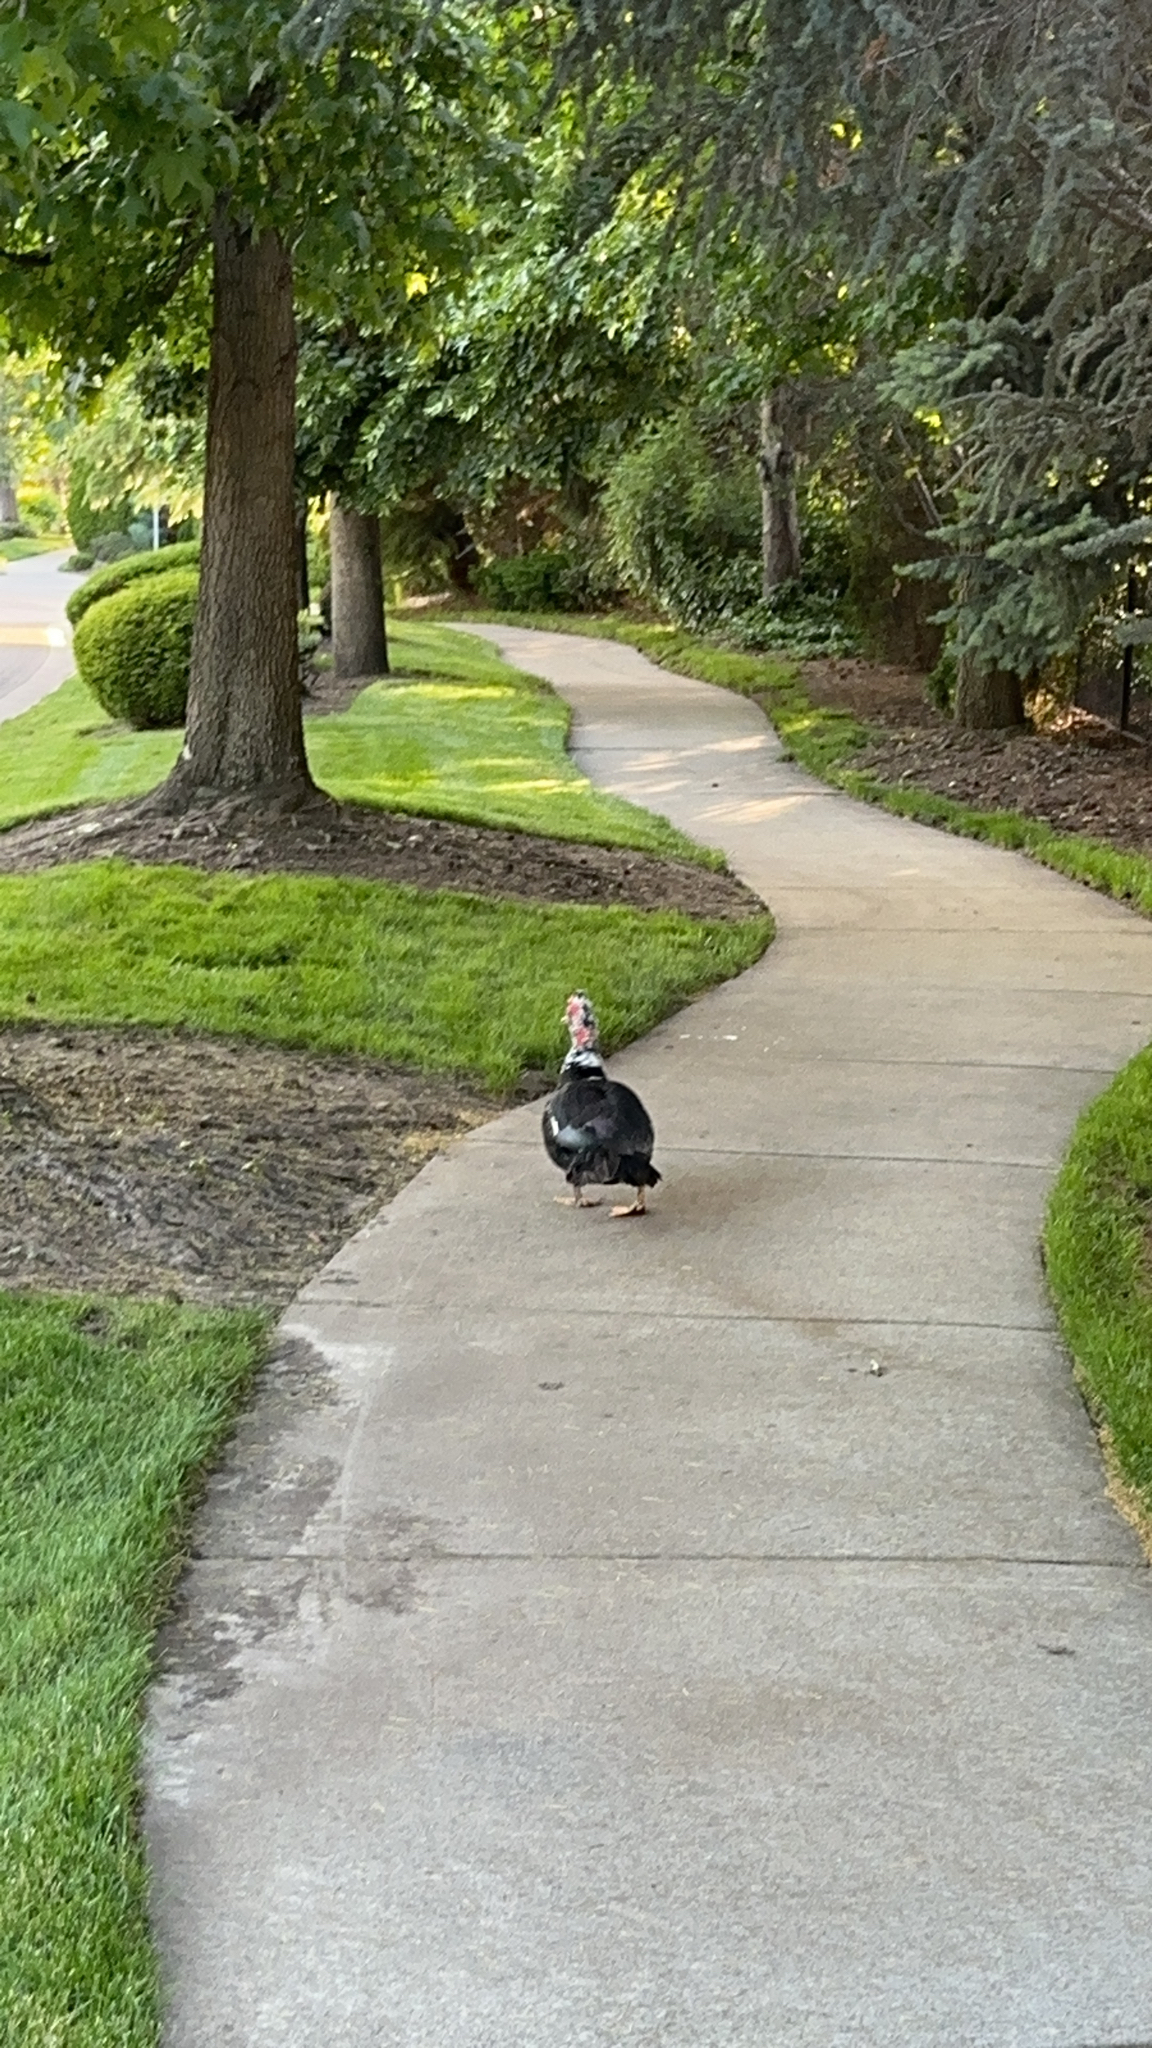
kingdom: Animalia
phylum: Chordata
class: Aves
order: Anseriformes
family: Anatidae
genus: Cairina
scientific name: Cairina moschata
